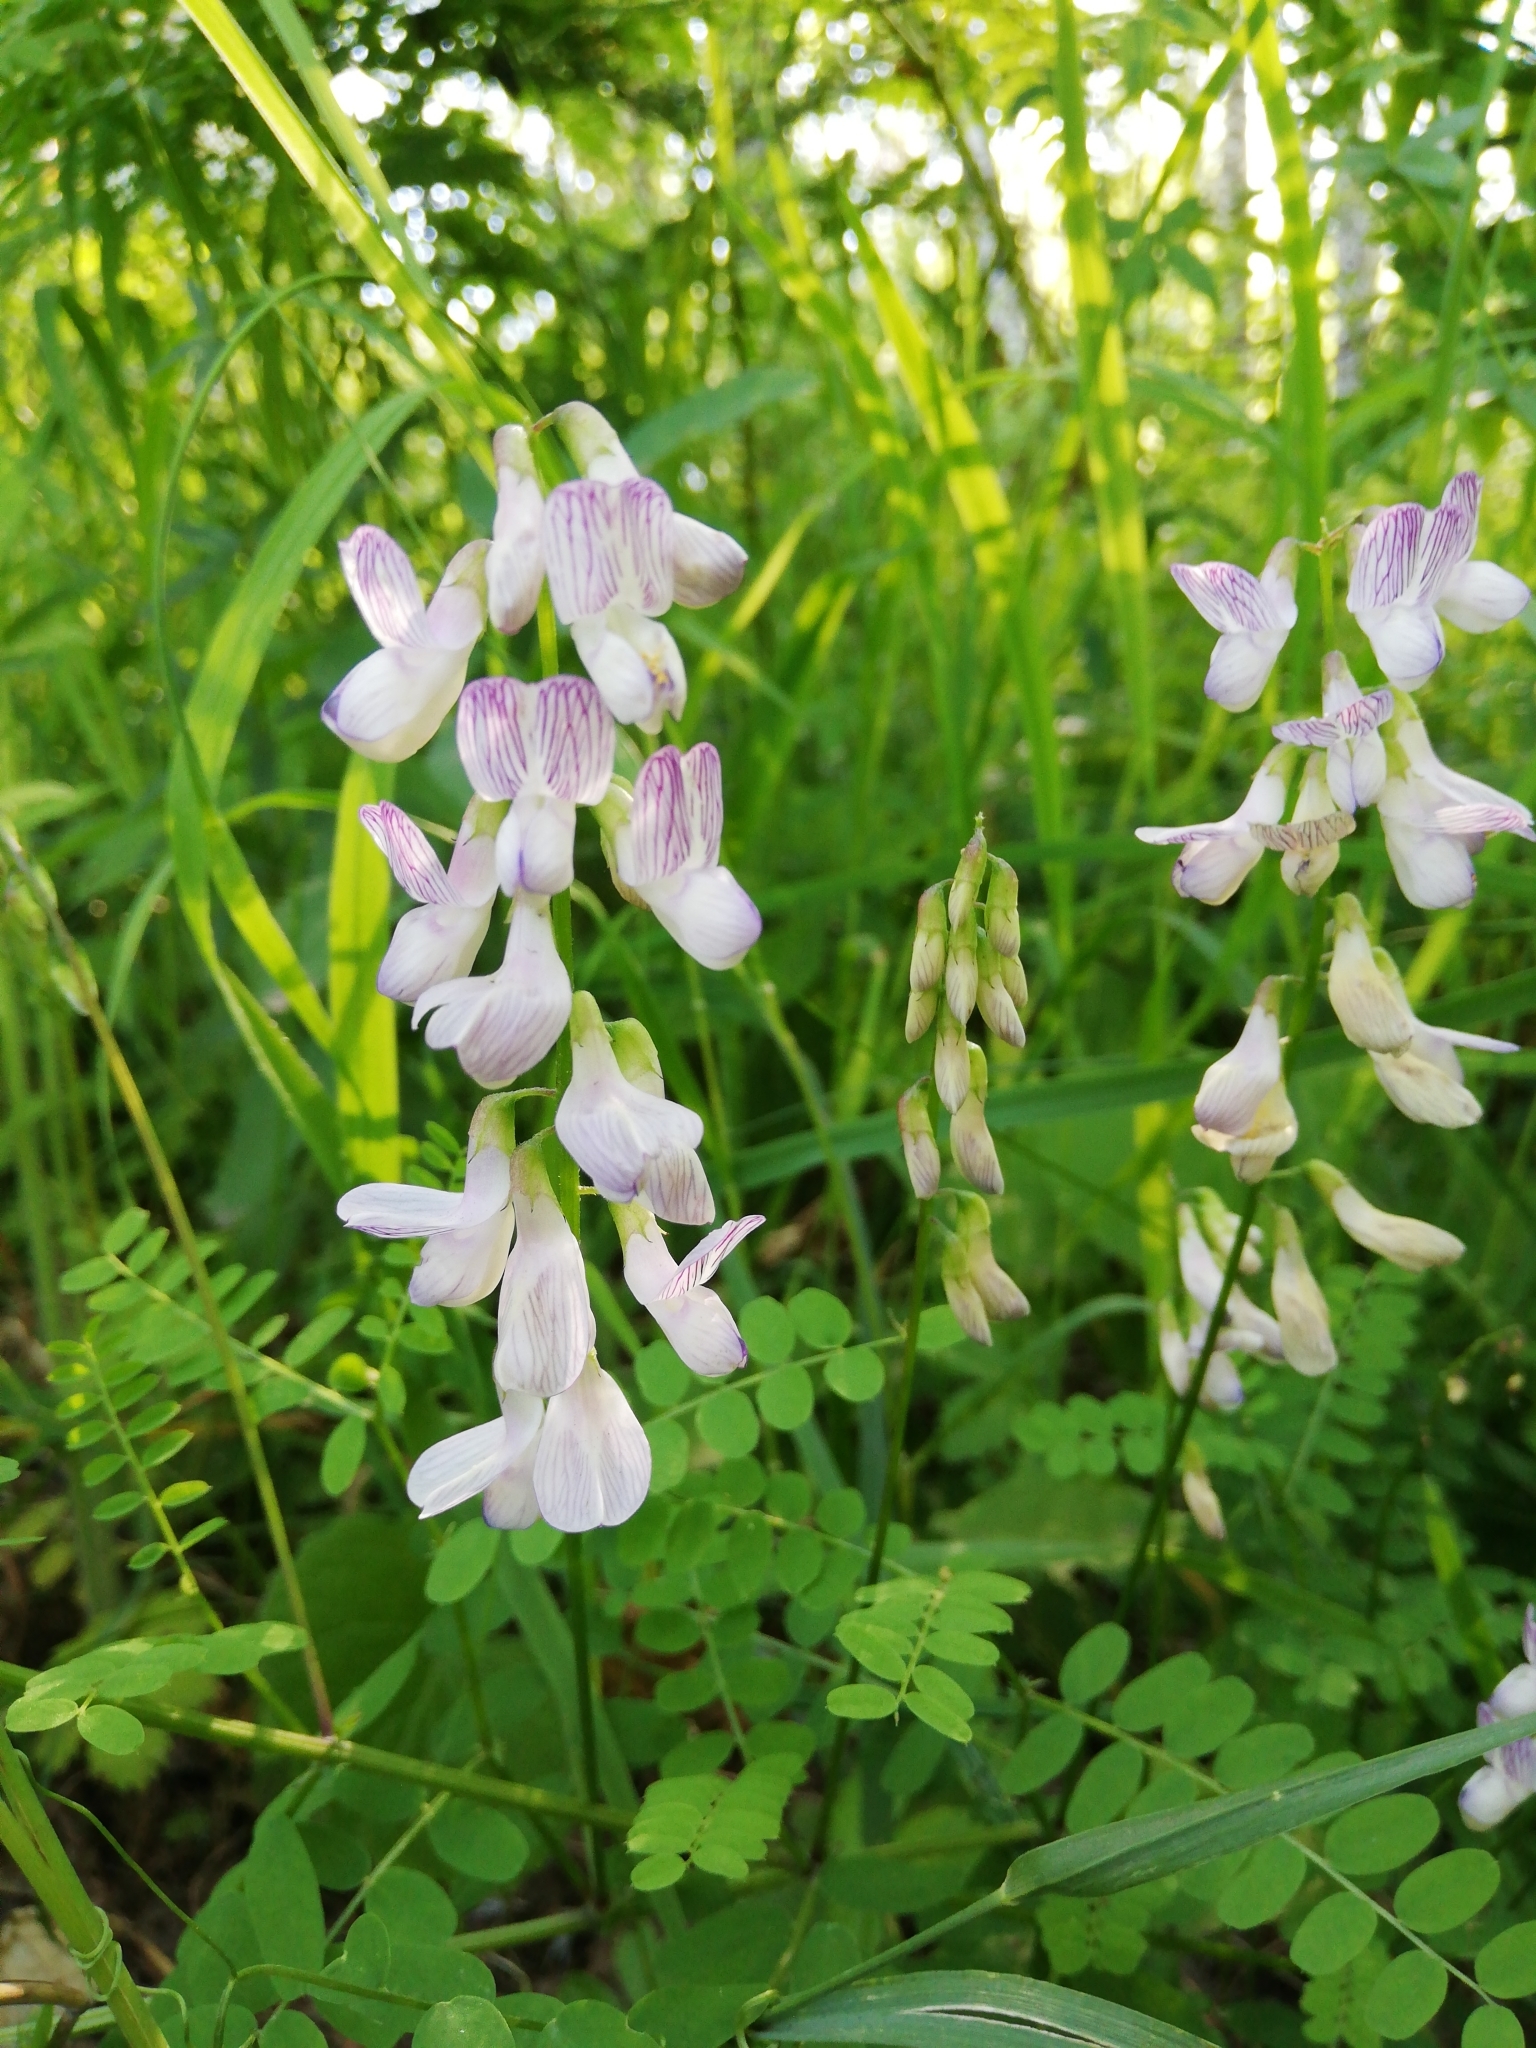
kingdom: Plantae
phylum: Tracheophyta
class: Magnoliopsida
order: Fabales
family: Fabaceae
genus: Vicia
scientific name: Vicia sylvatica
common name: Wood vetch
